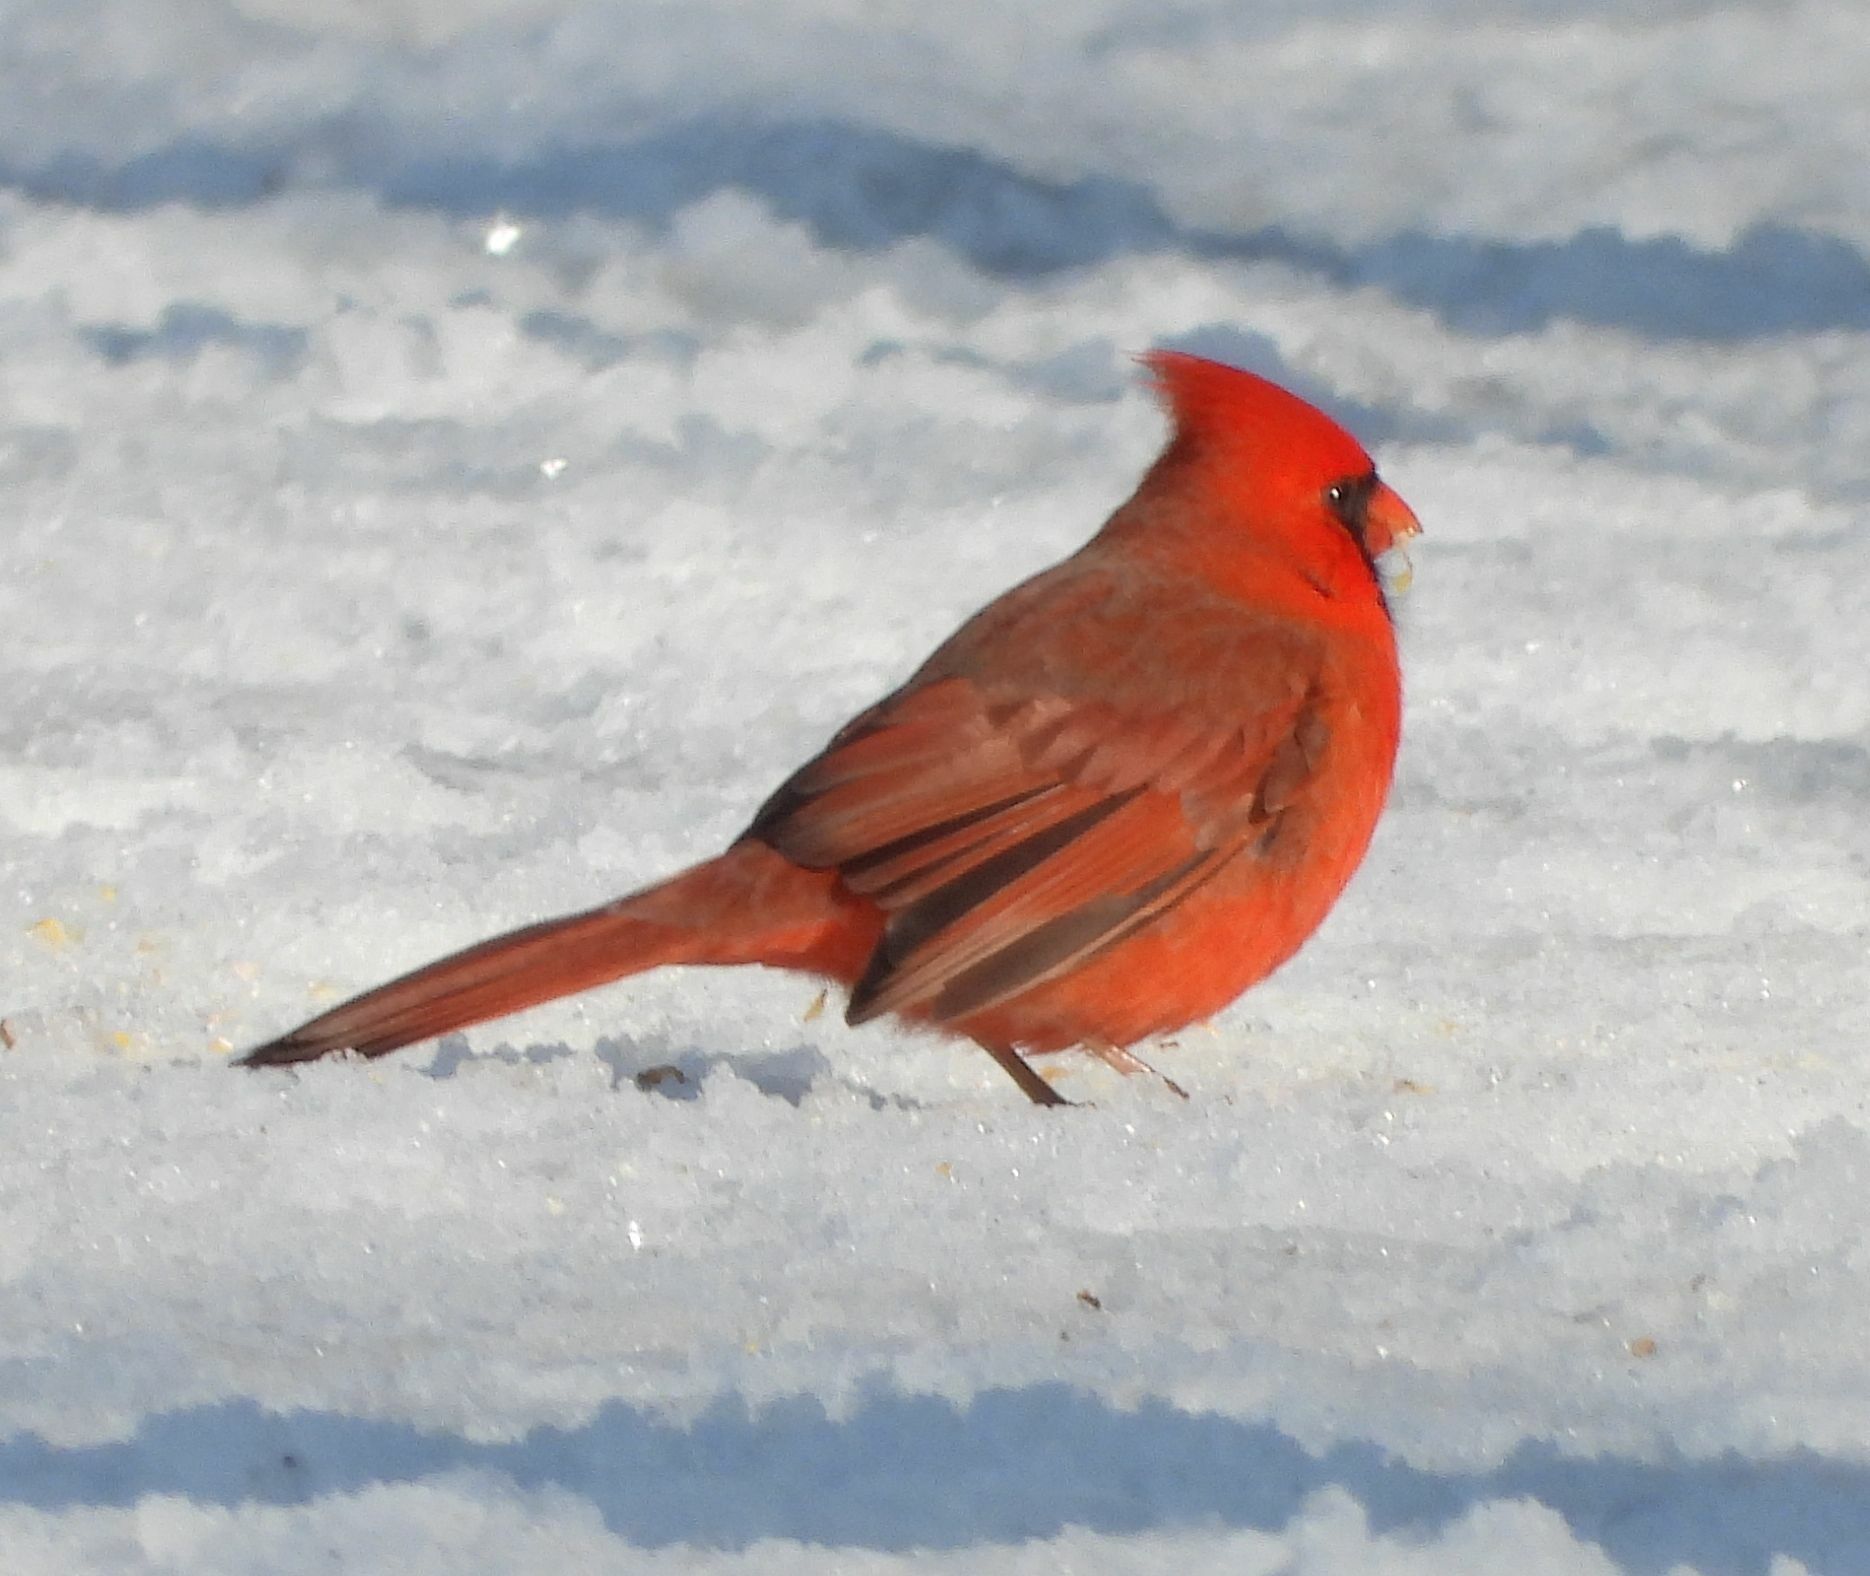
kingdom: Animalia
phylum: Chordata
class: Aves
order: Passeriformes
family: Cardinalidae
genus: Cardinalis
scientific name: Cardinalis cardinalis
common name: Northern cardinal
